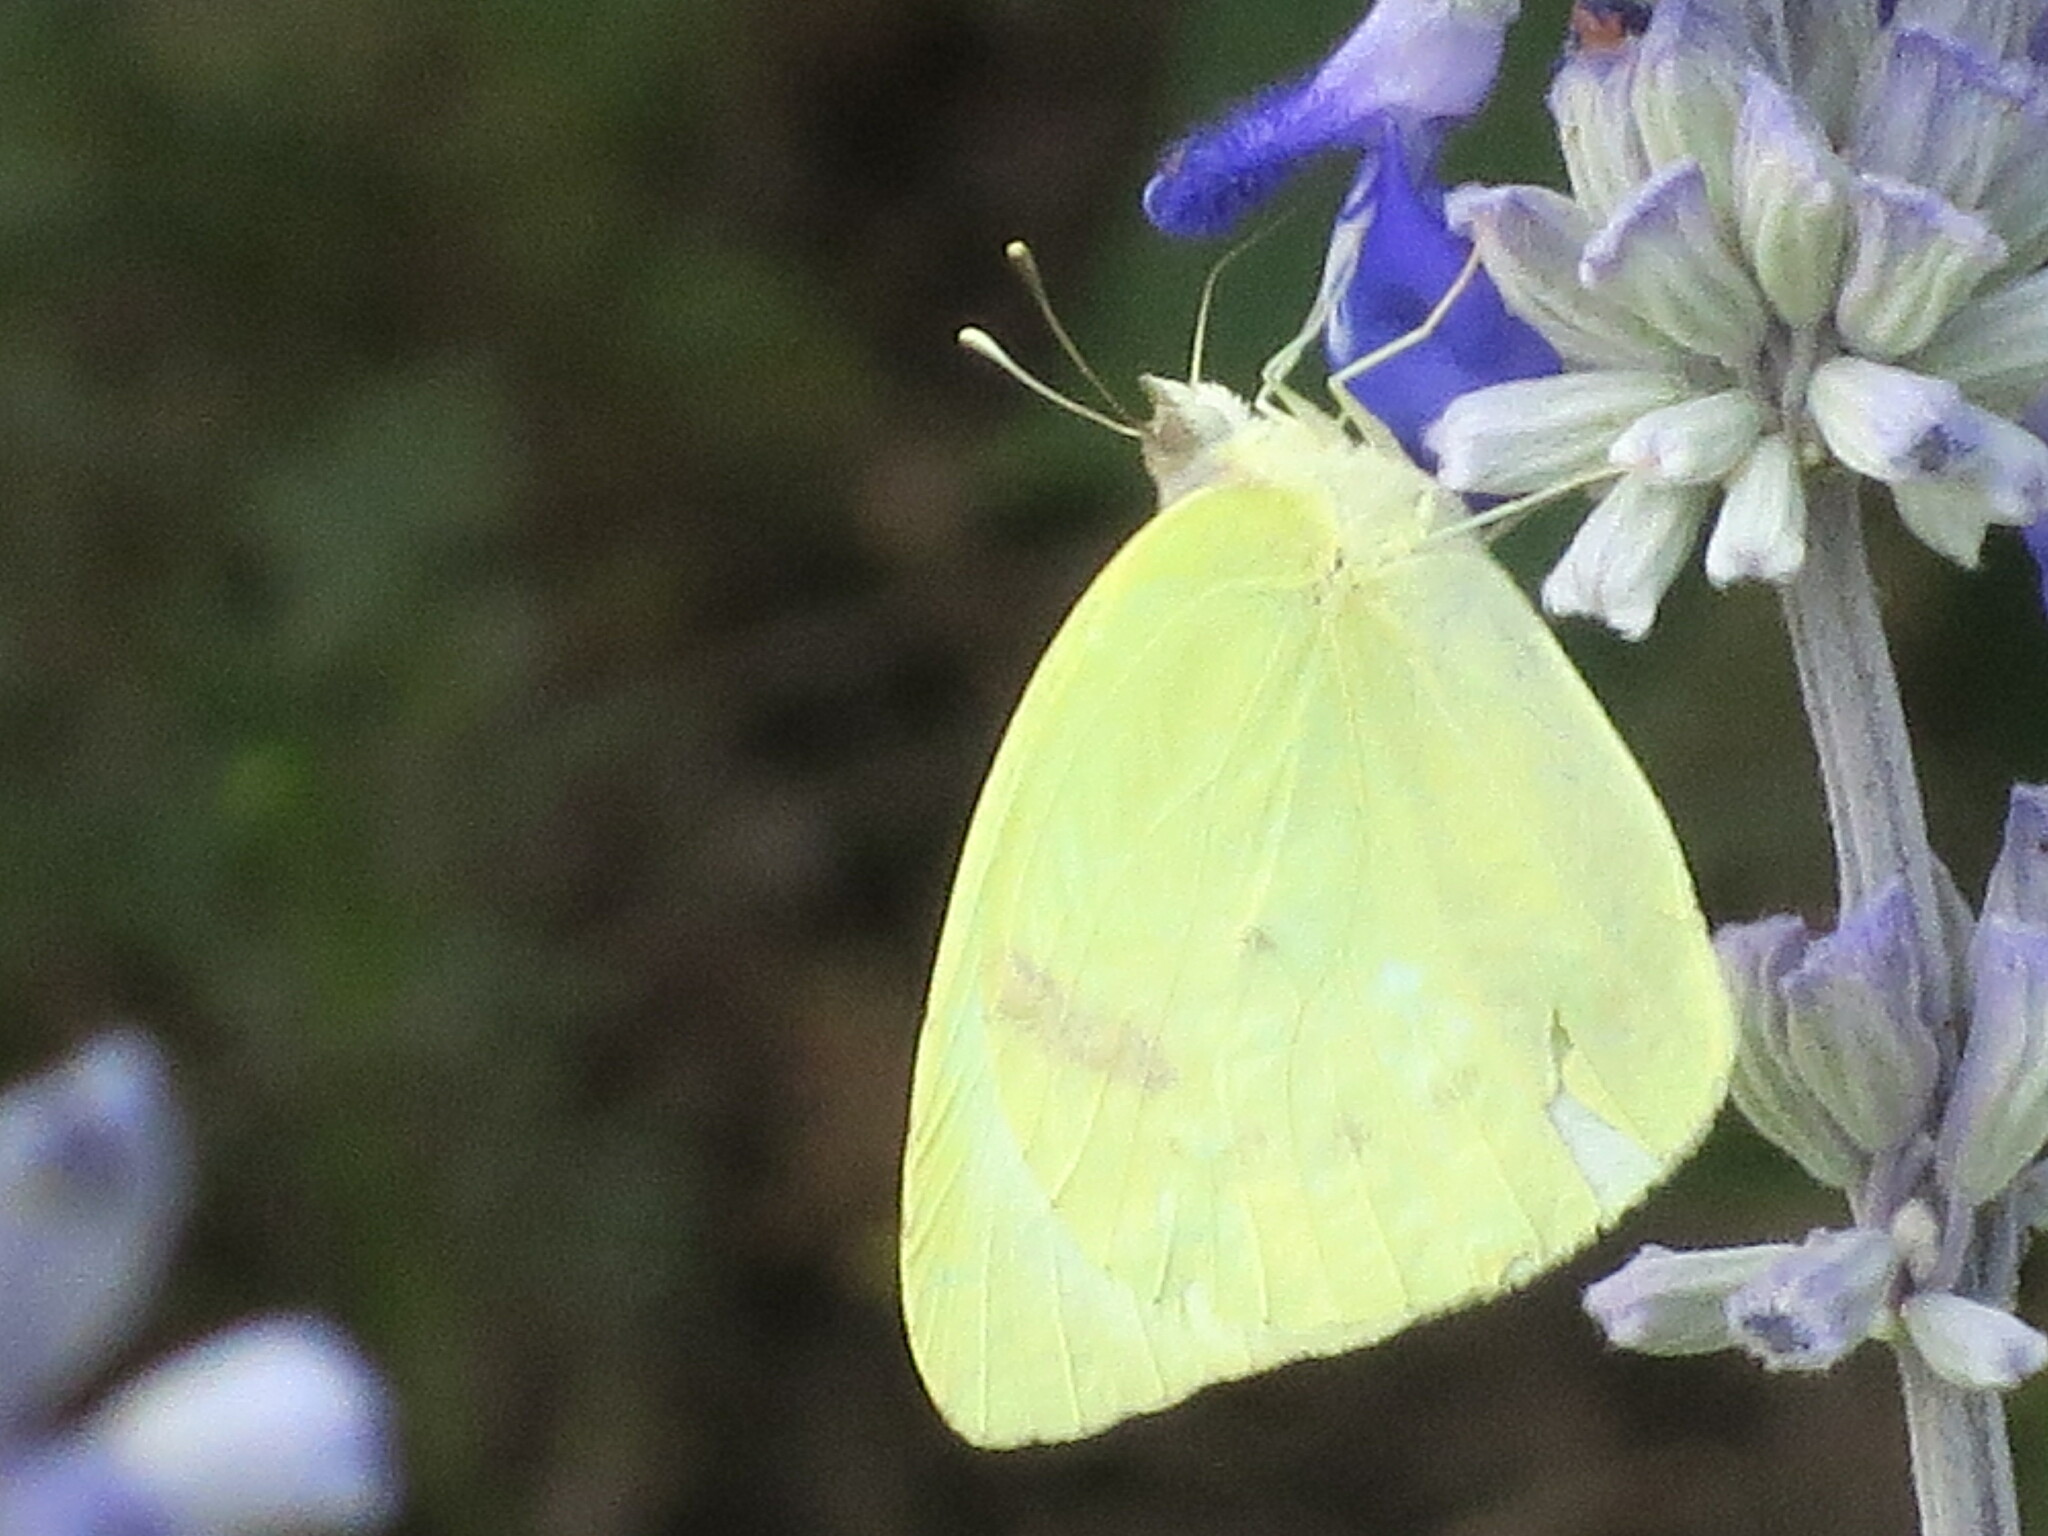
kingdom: Animalia
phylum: Arthropoda
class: Insecta
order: Lepidoptera
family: Pieridae
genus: Kricogonia
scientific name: Kricogonia lyside
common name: Guayacan sulphur,
